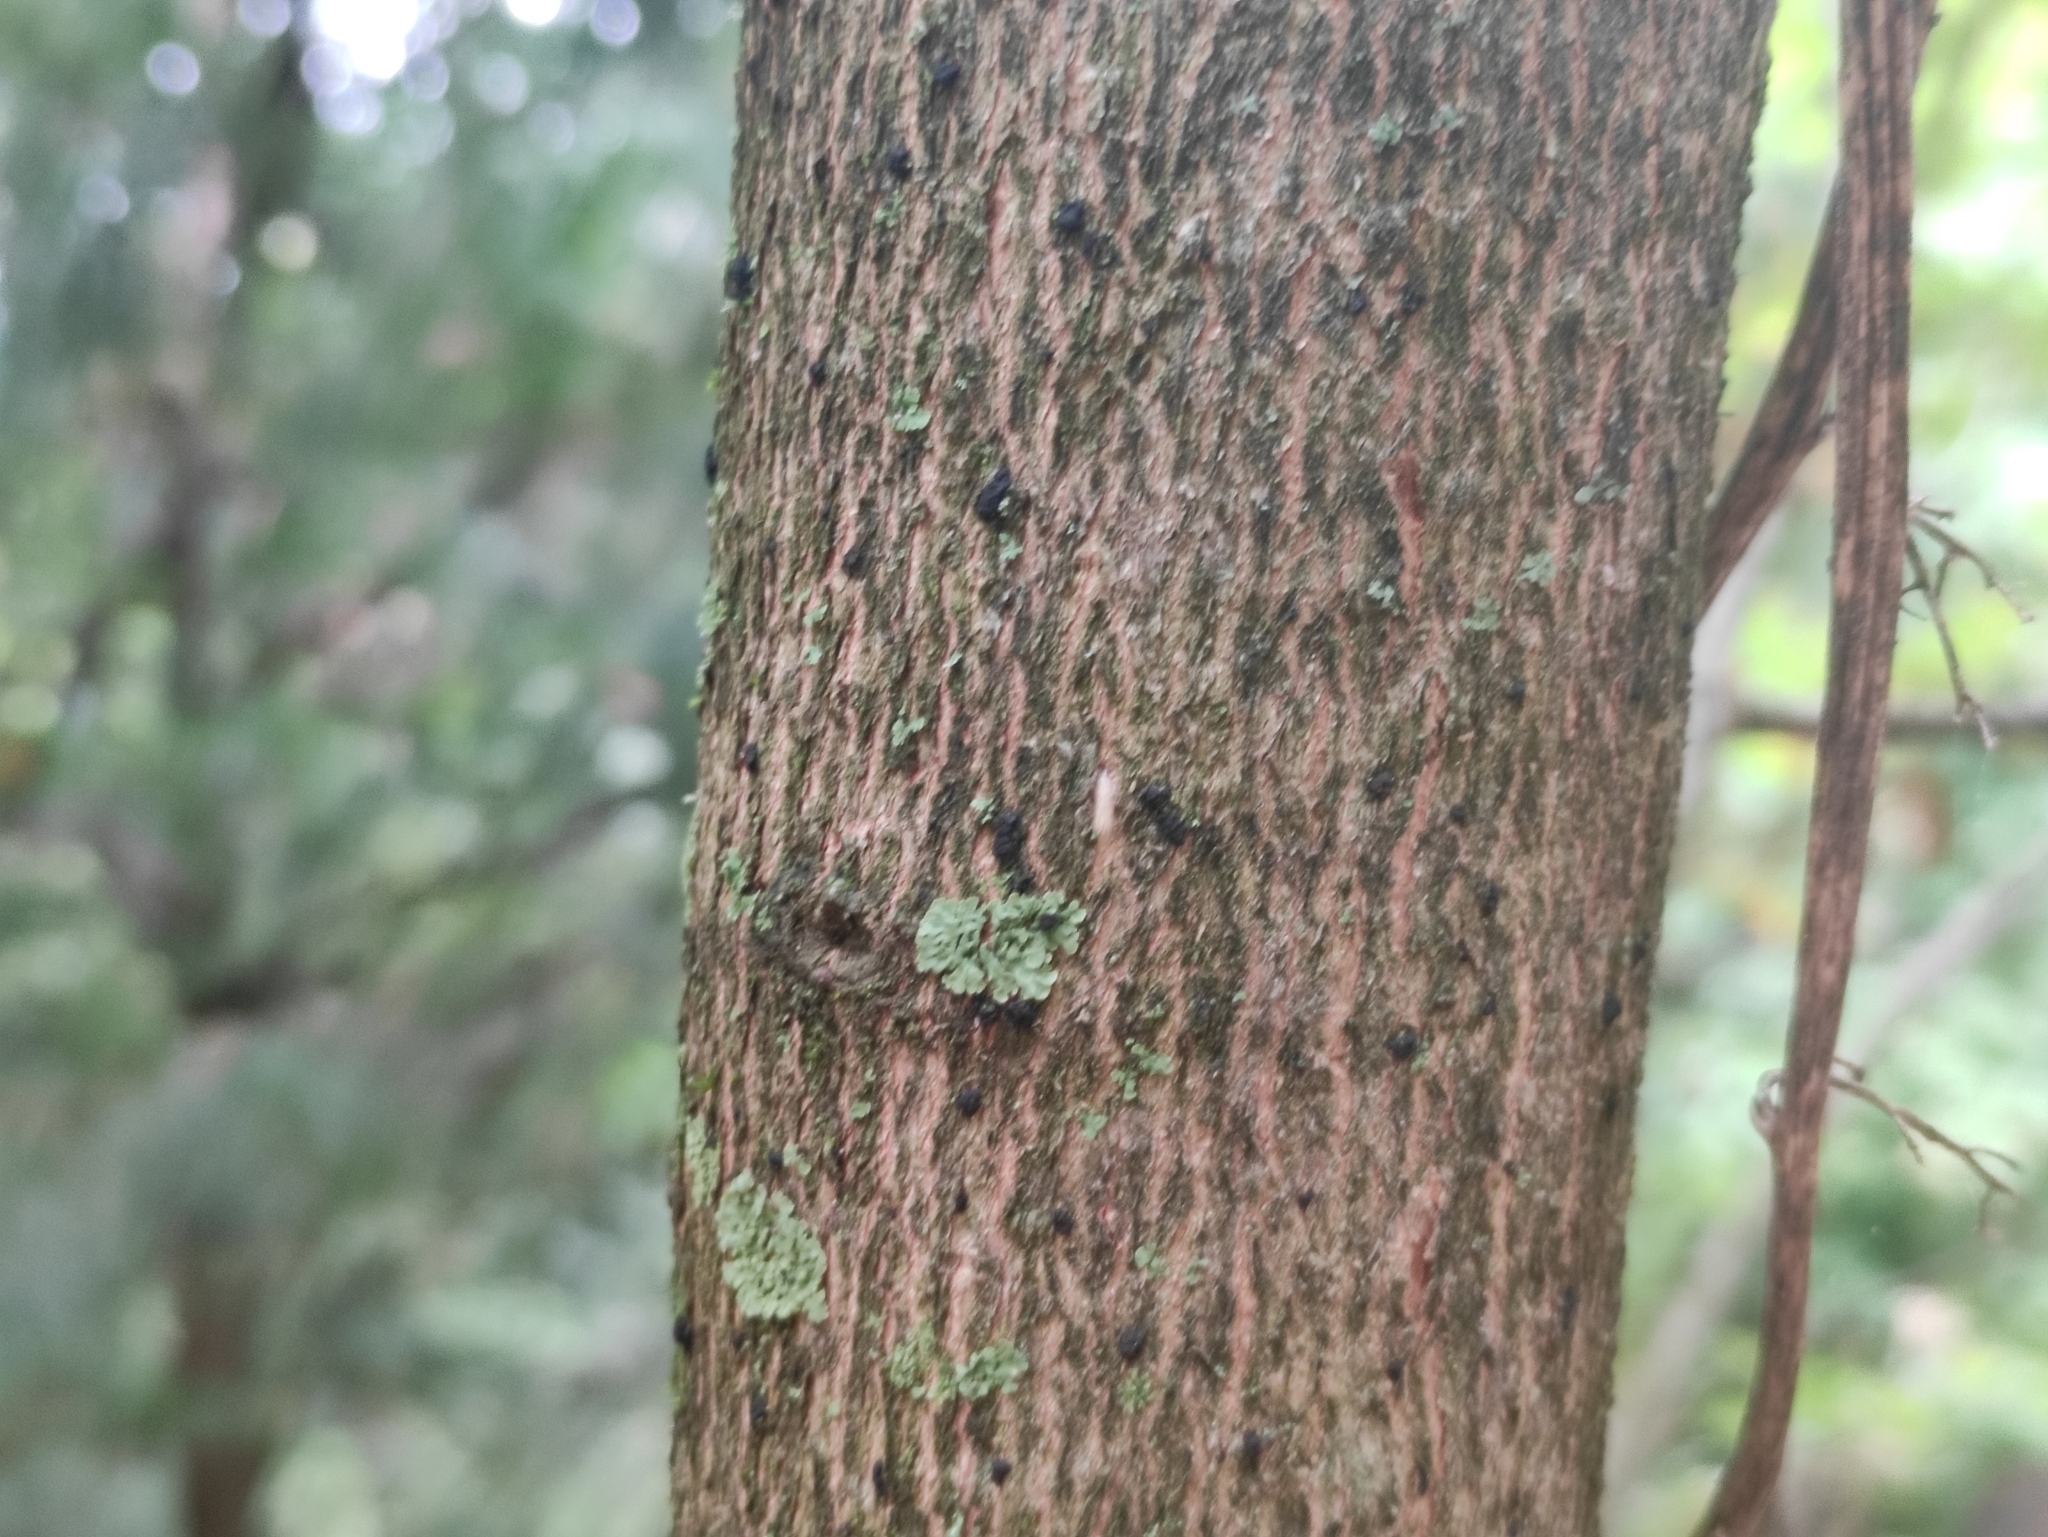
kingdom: Plantae
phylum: Tracheophyta
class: Magnoliopsida
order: Sapindales
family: Sapindaceae
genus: Acer
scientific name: Acer opalus
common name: Italian maple
